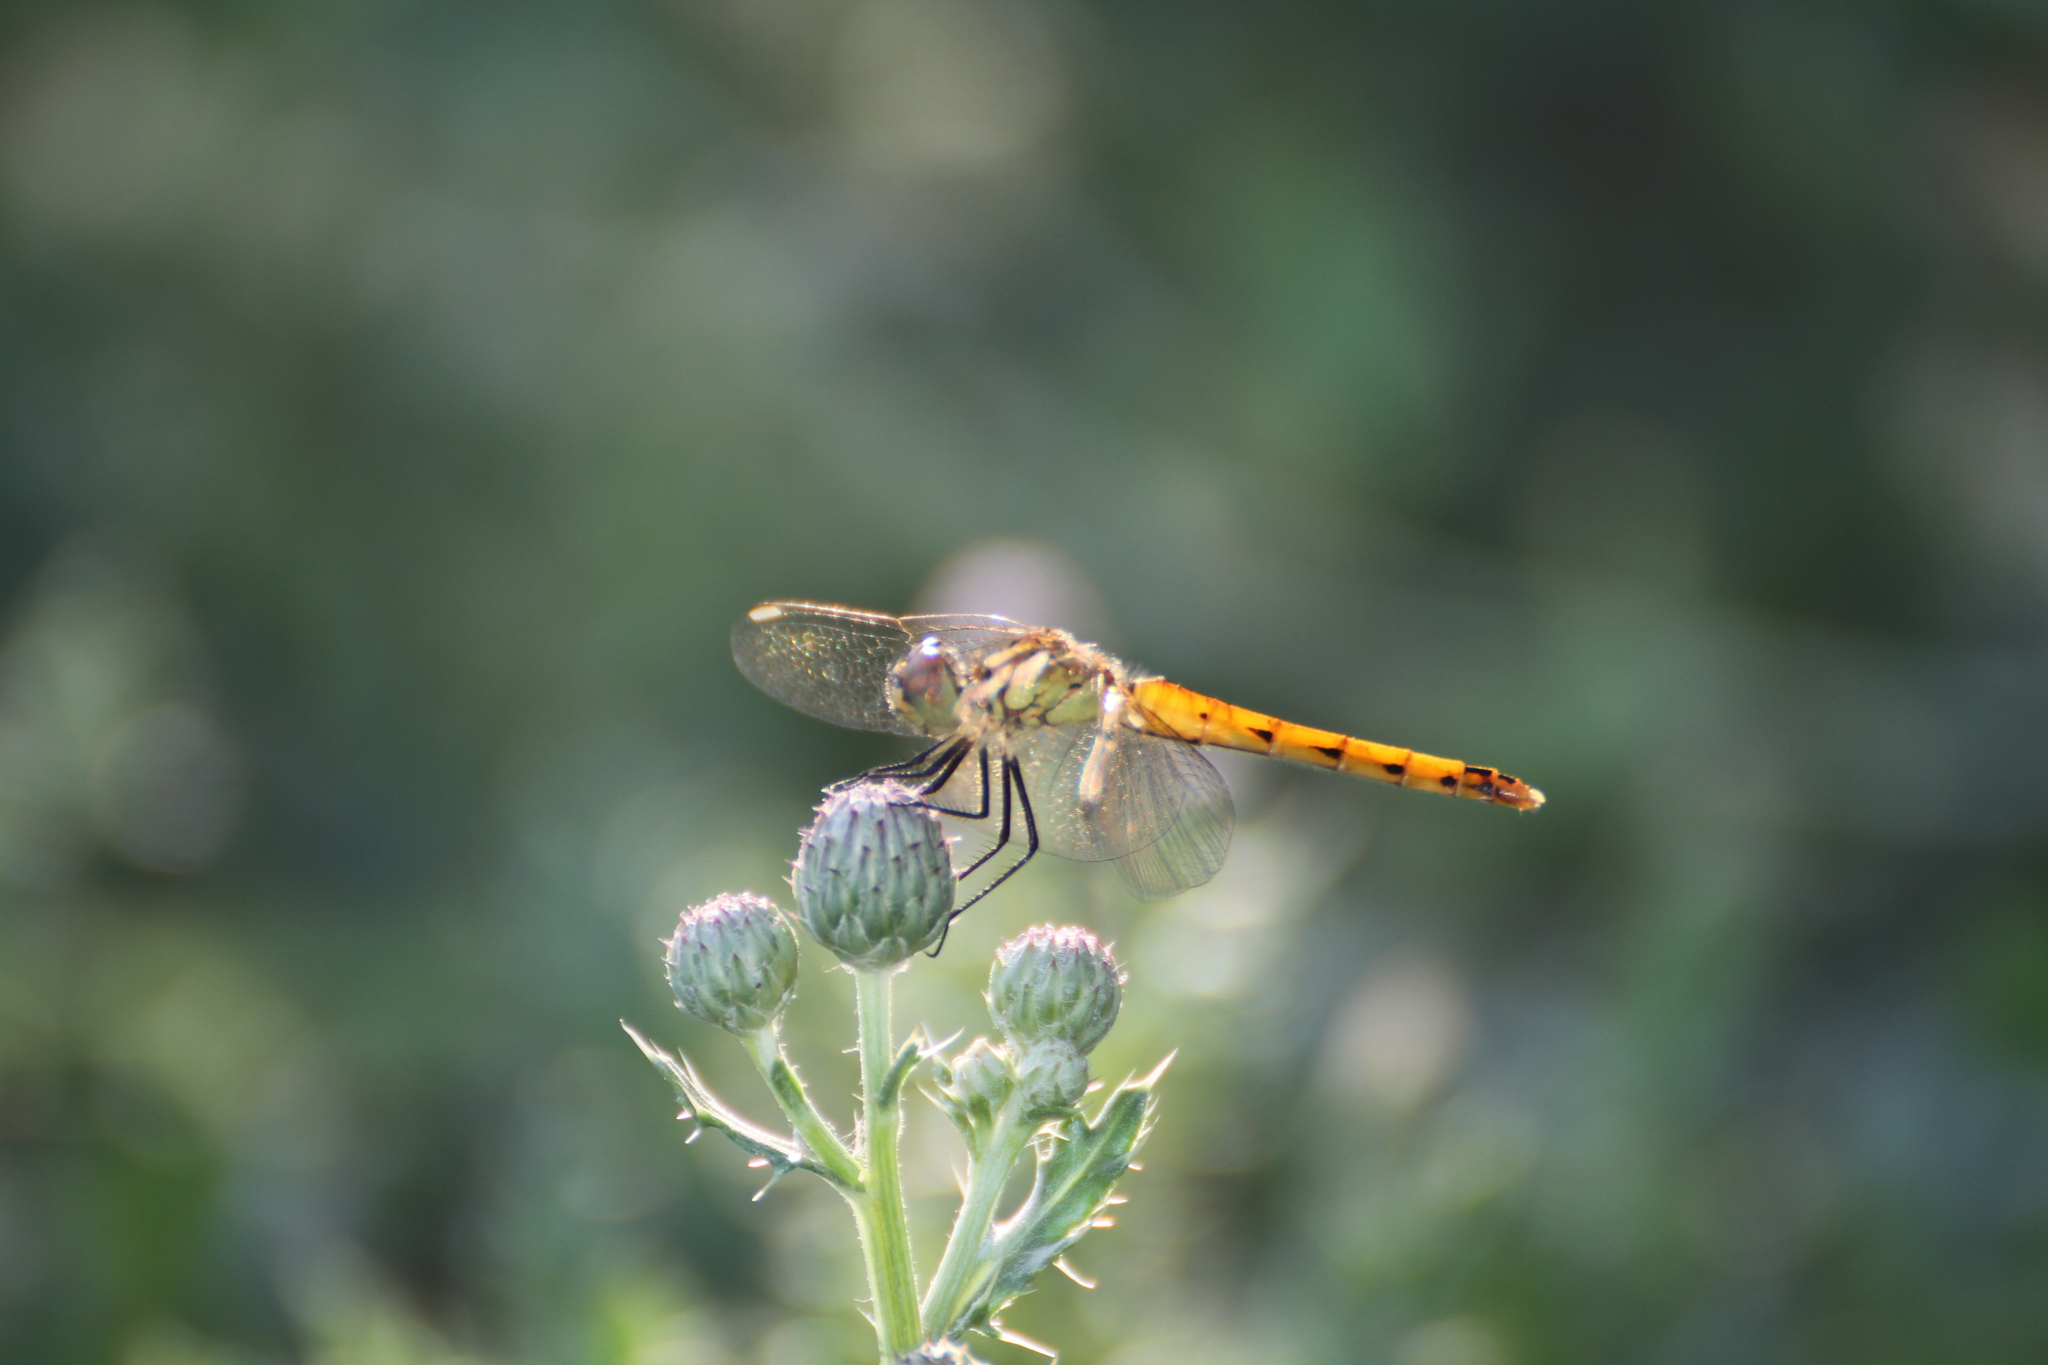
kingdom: Animalia
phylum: Arthropoda
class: Insecta
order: Odonata
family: Libellulidae
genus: Sympetrum
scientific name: Sympetrum depressiusculum
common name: Spotted darter
